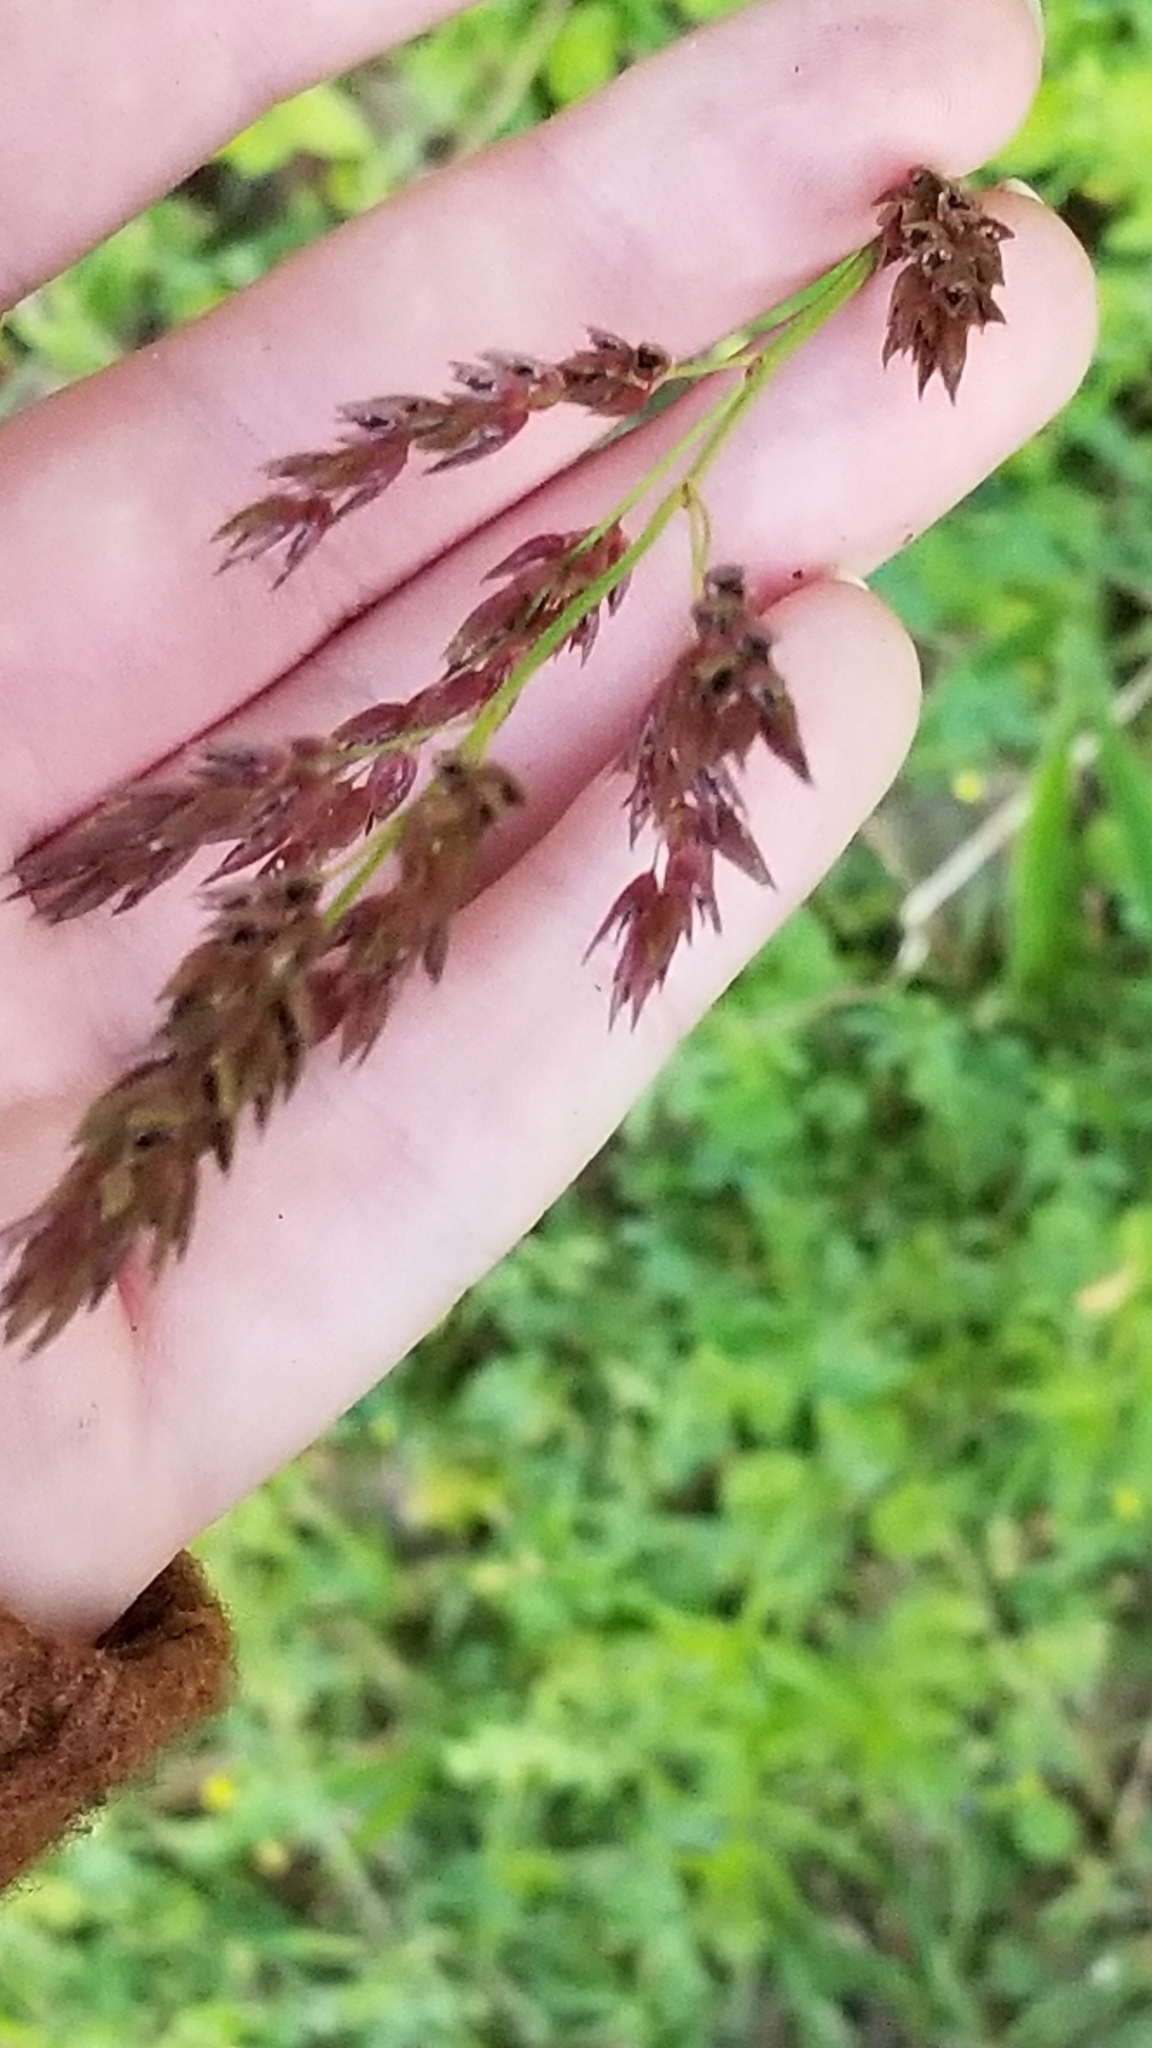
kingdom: Plantae
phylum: Tracheophyta
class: Liliopsida
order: Poales
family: Poaceae
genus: Sorghum
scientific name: Sorghum halepense
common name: Johnson-grass
